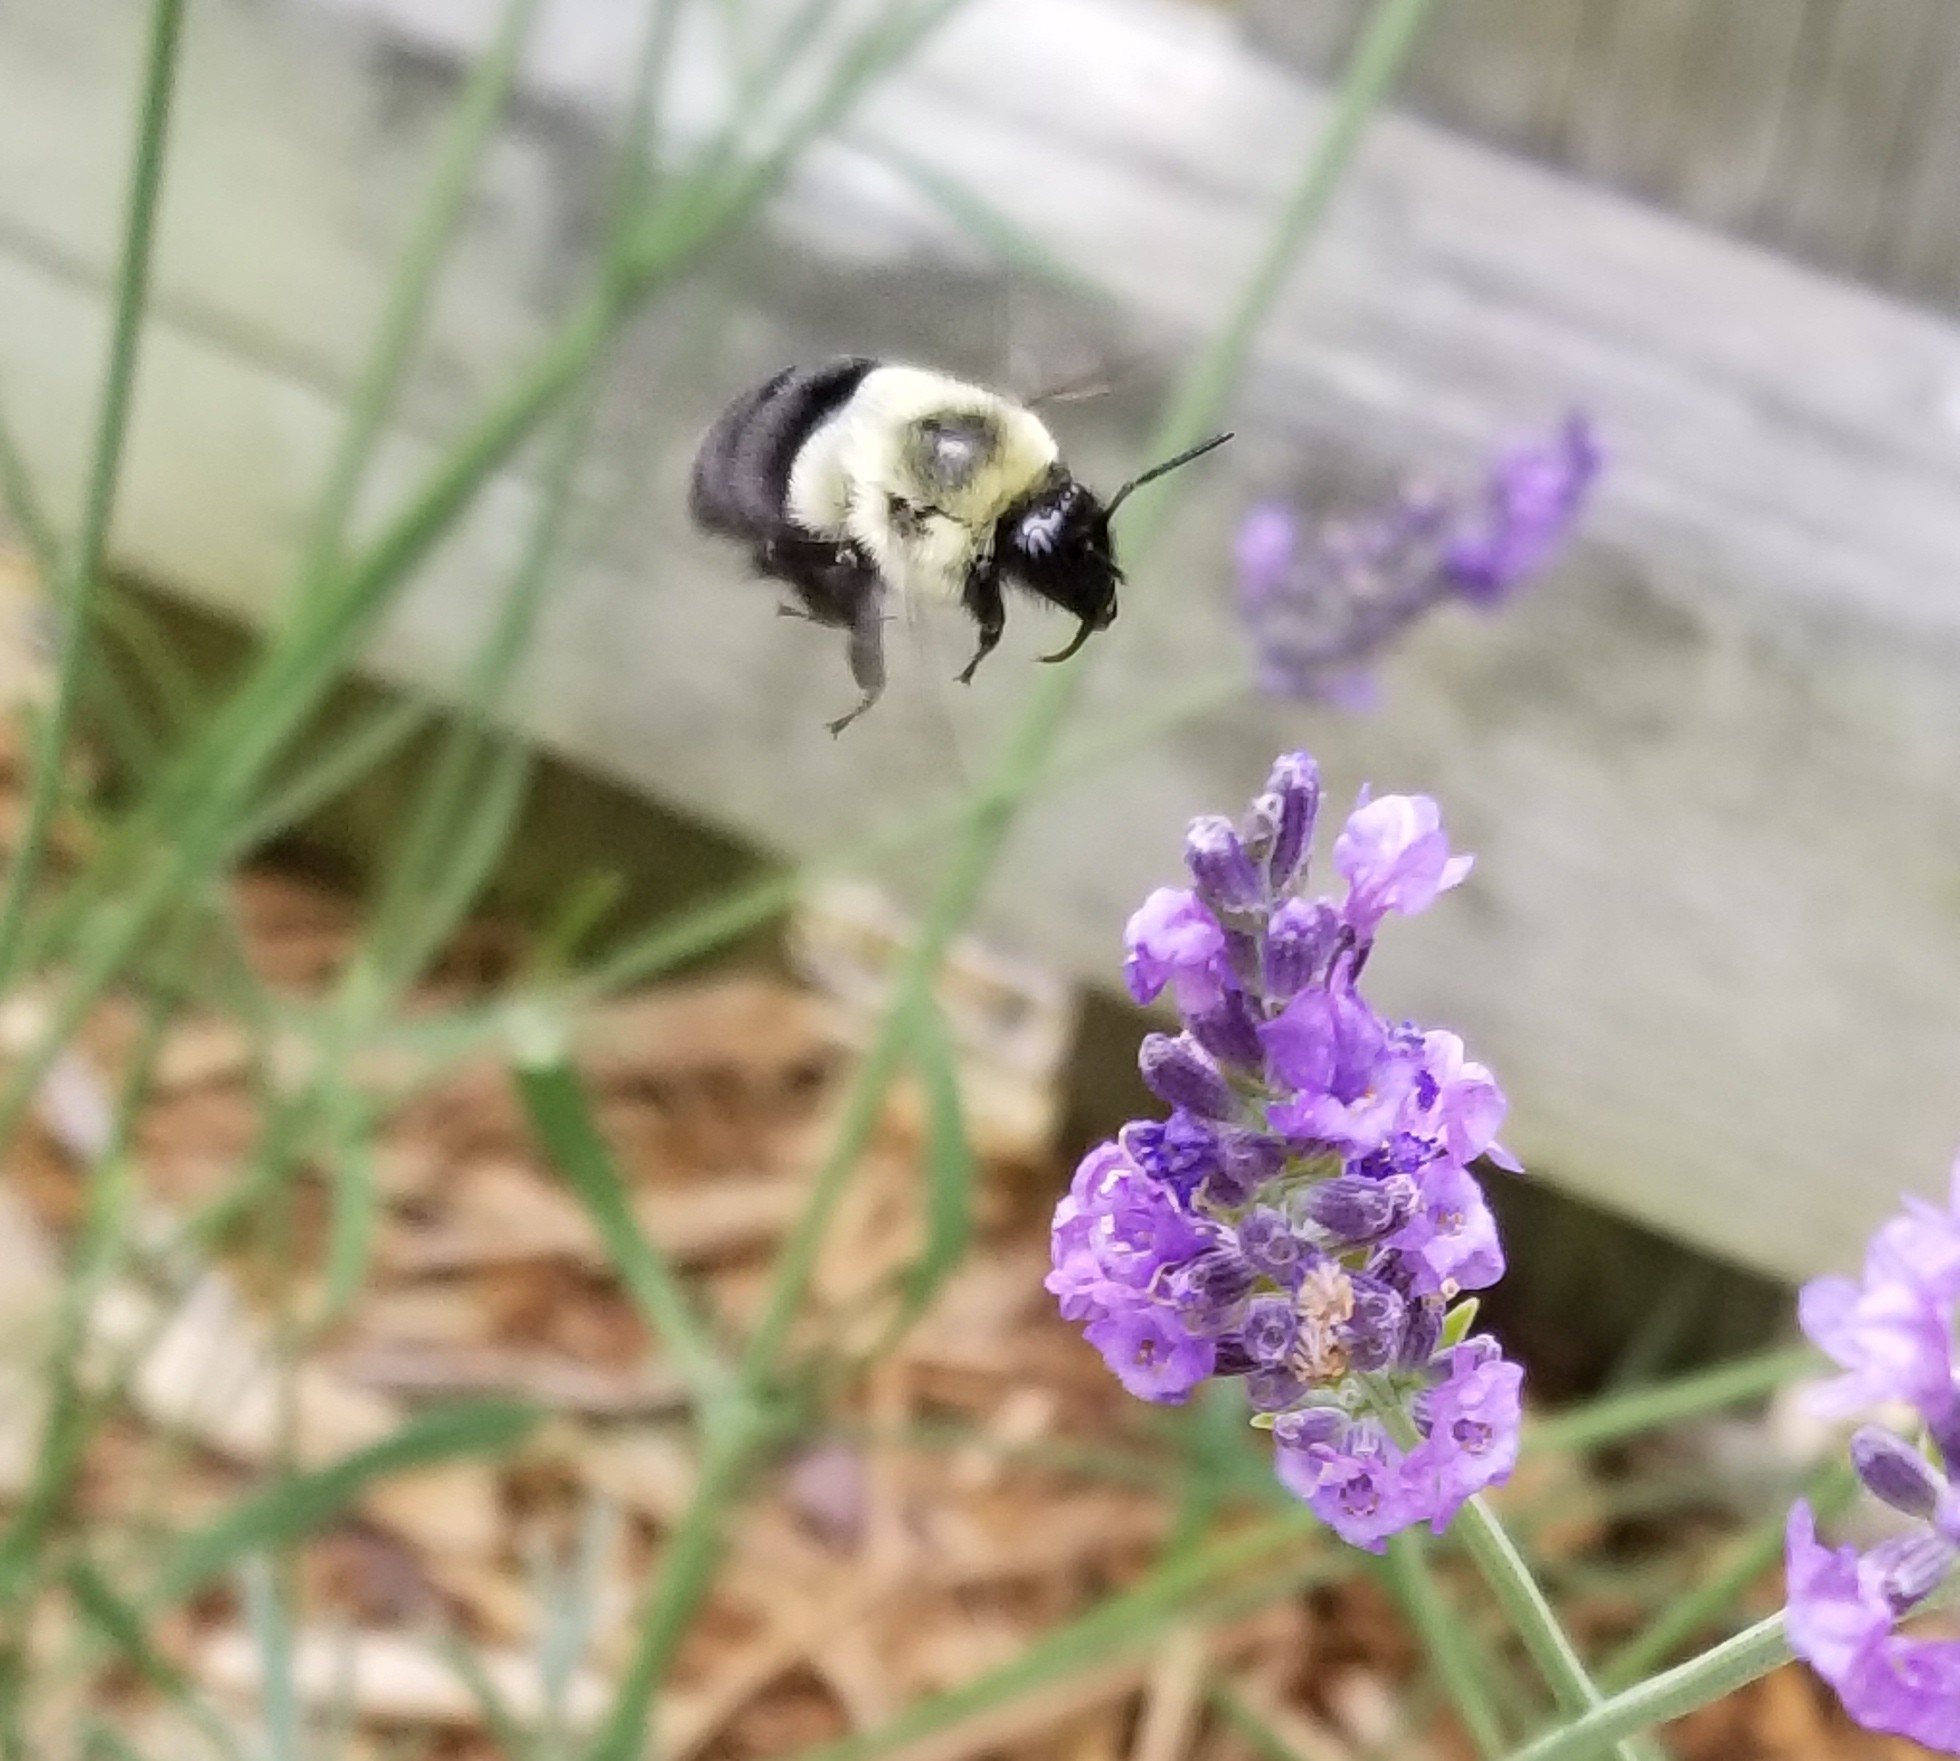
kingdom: Animalia
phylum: Arthropoda
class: Insecta
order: Hymenoptera
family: Apidae
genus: Bombus
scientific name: Bombus impatiens
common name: Common eastern bumble bee
